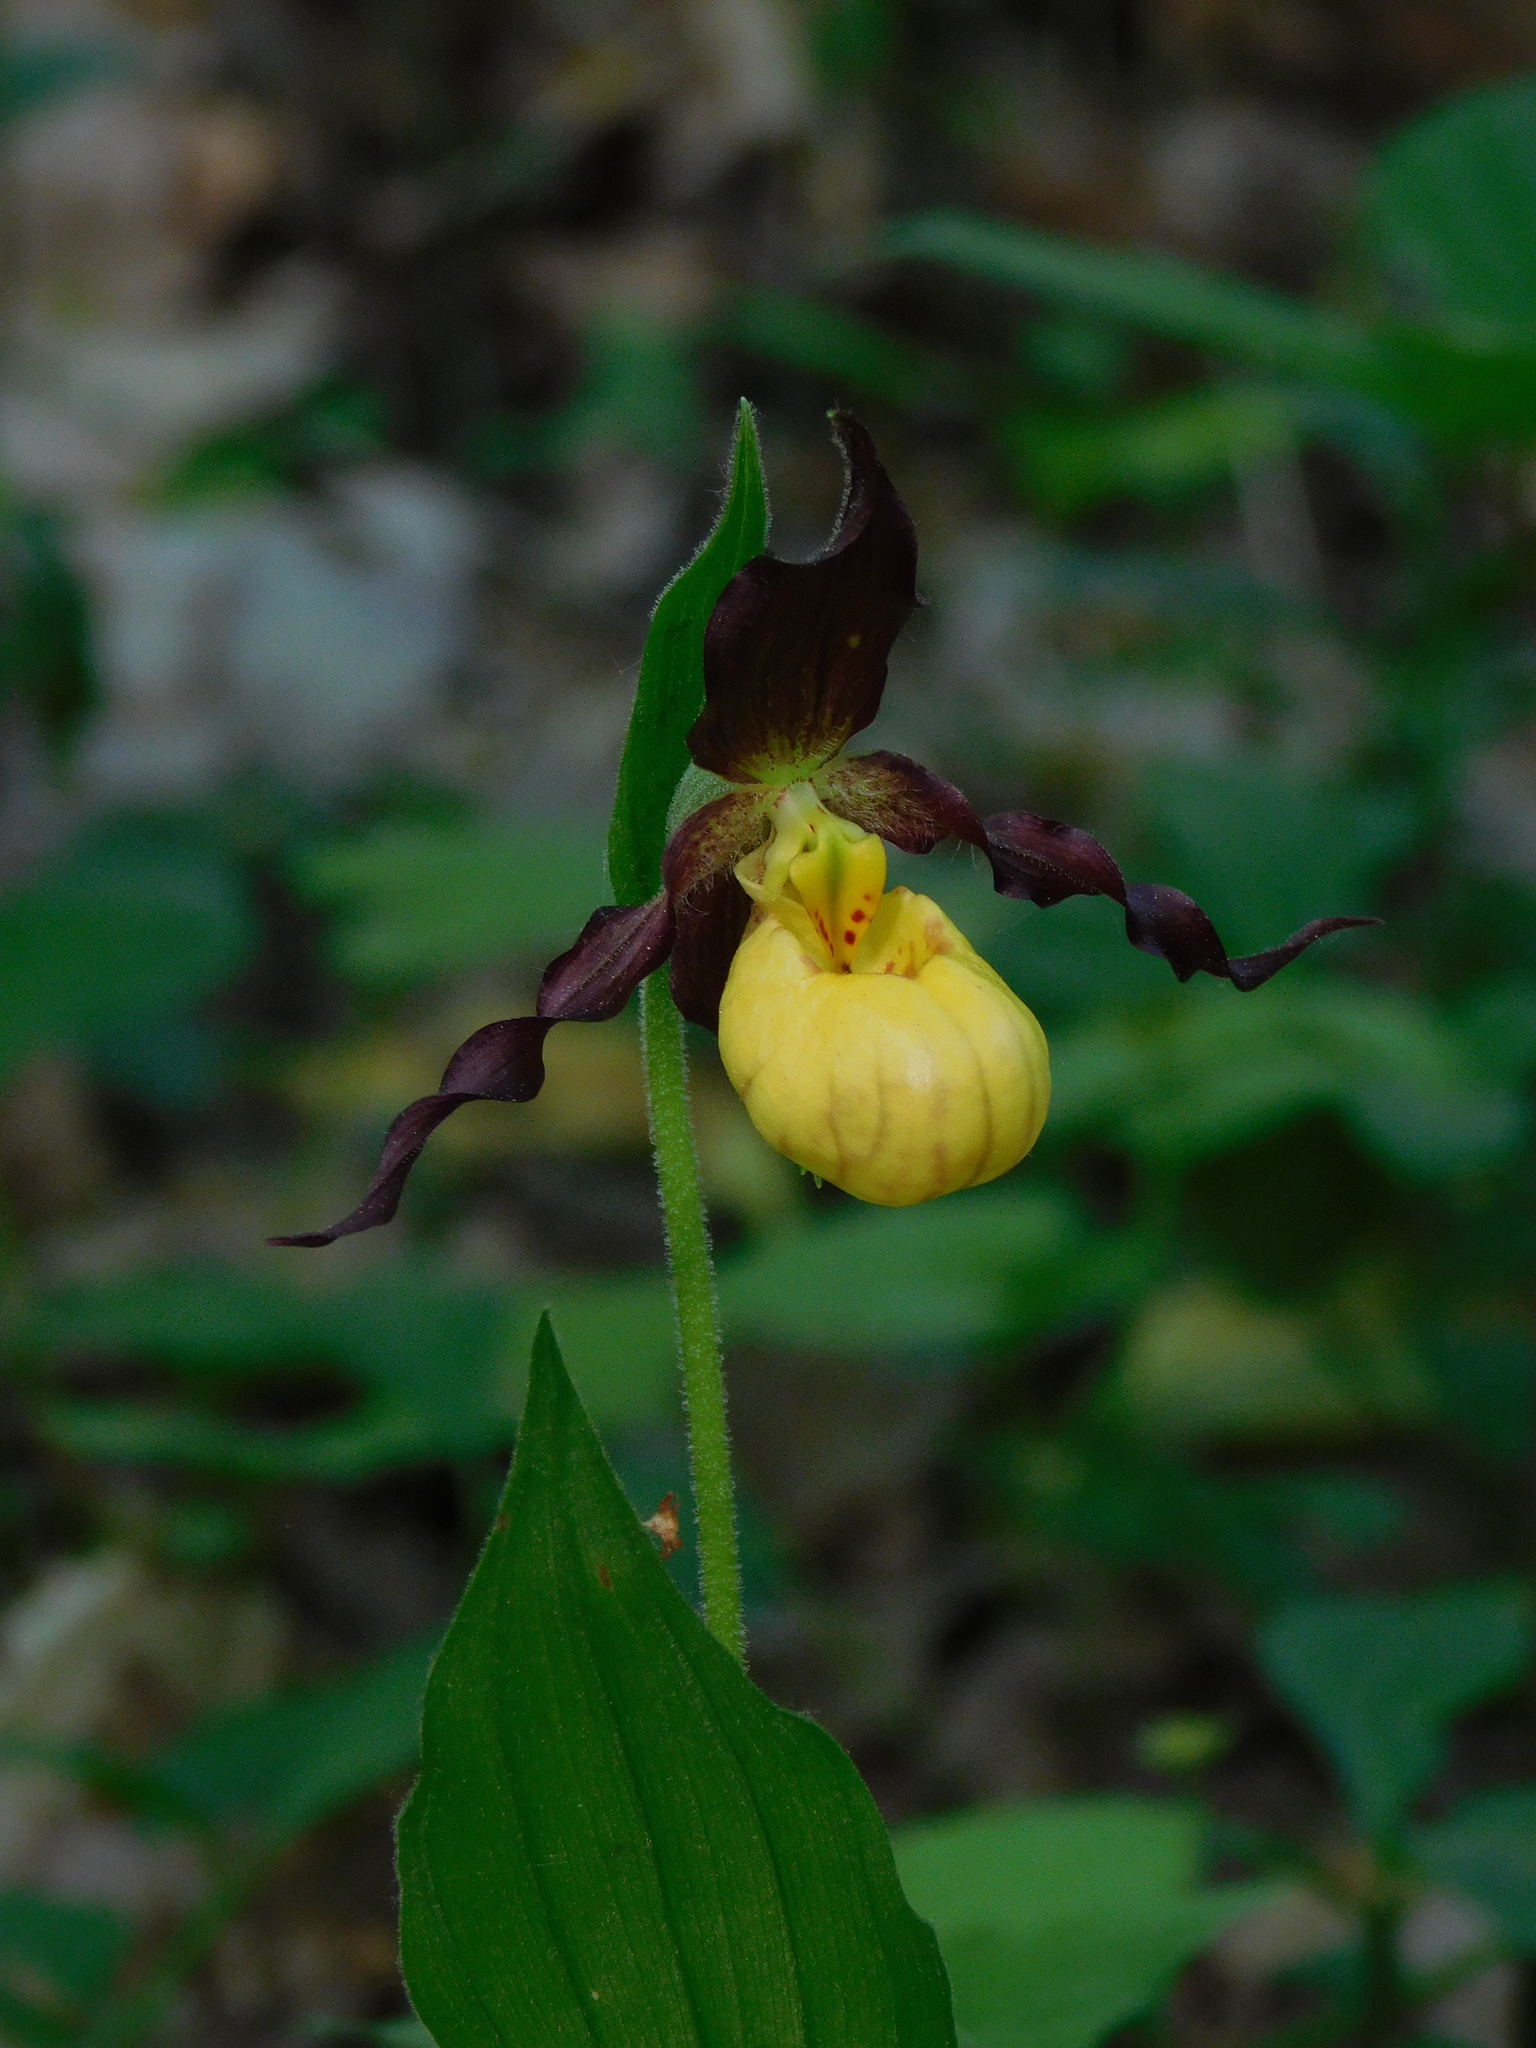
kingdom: Plantae
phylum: Tracheophyta
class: Liliopsida
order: Asparagales
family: Orchidaceae
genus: Cypripedium
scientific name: Cypripedium parviflorum
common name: American yellow lady's-slipper
